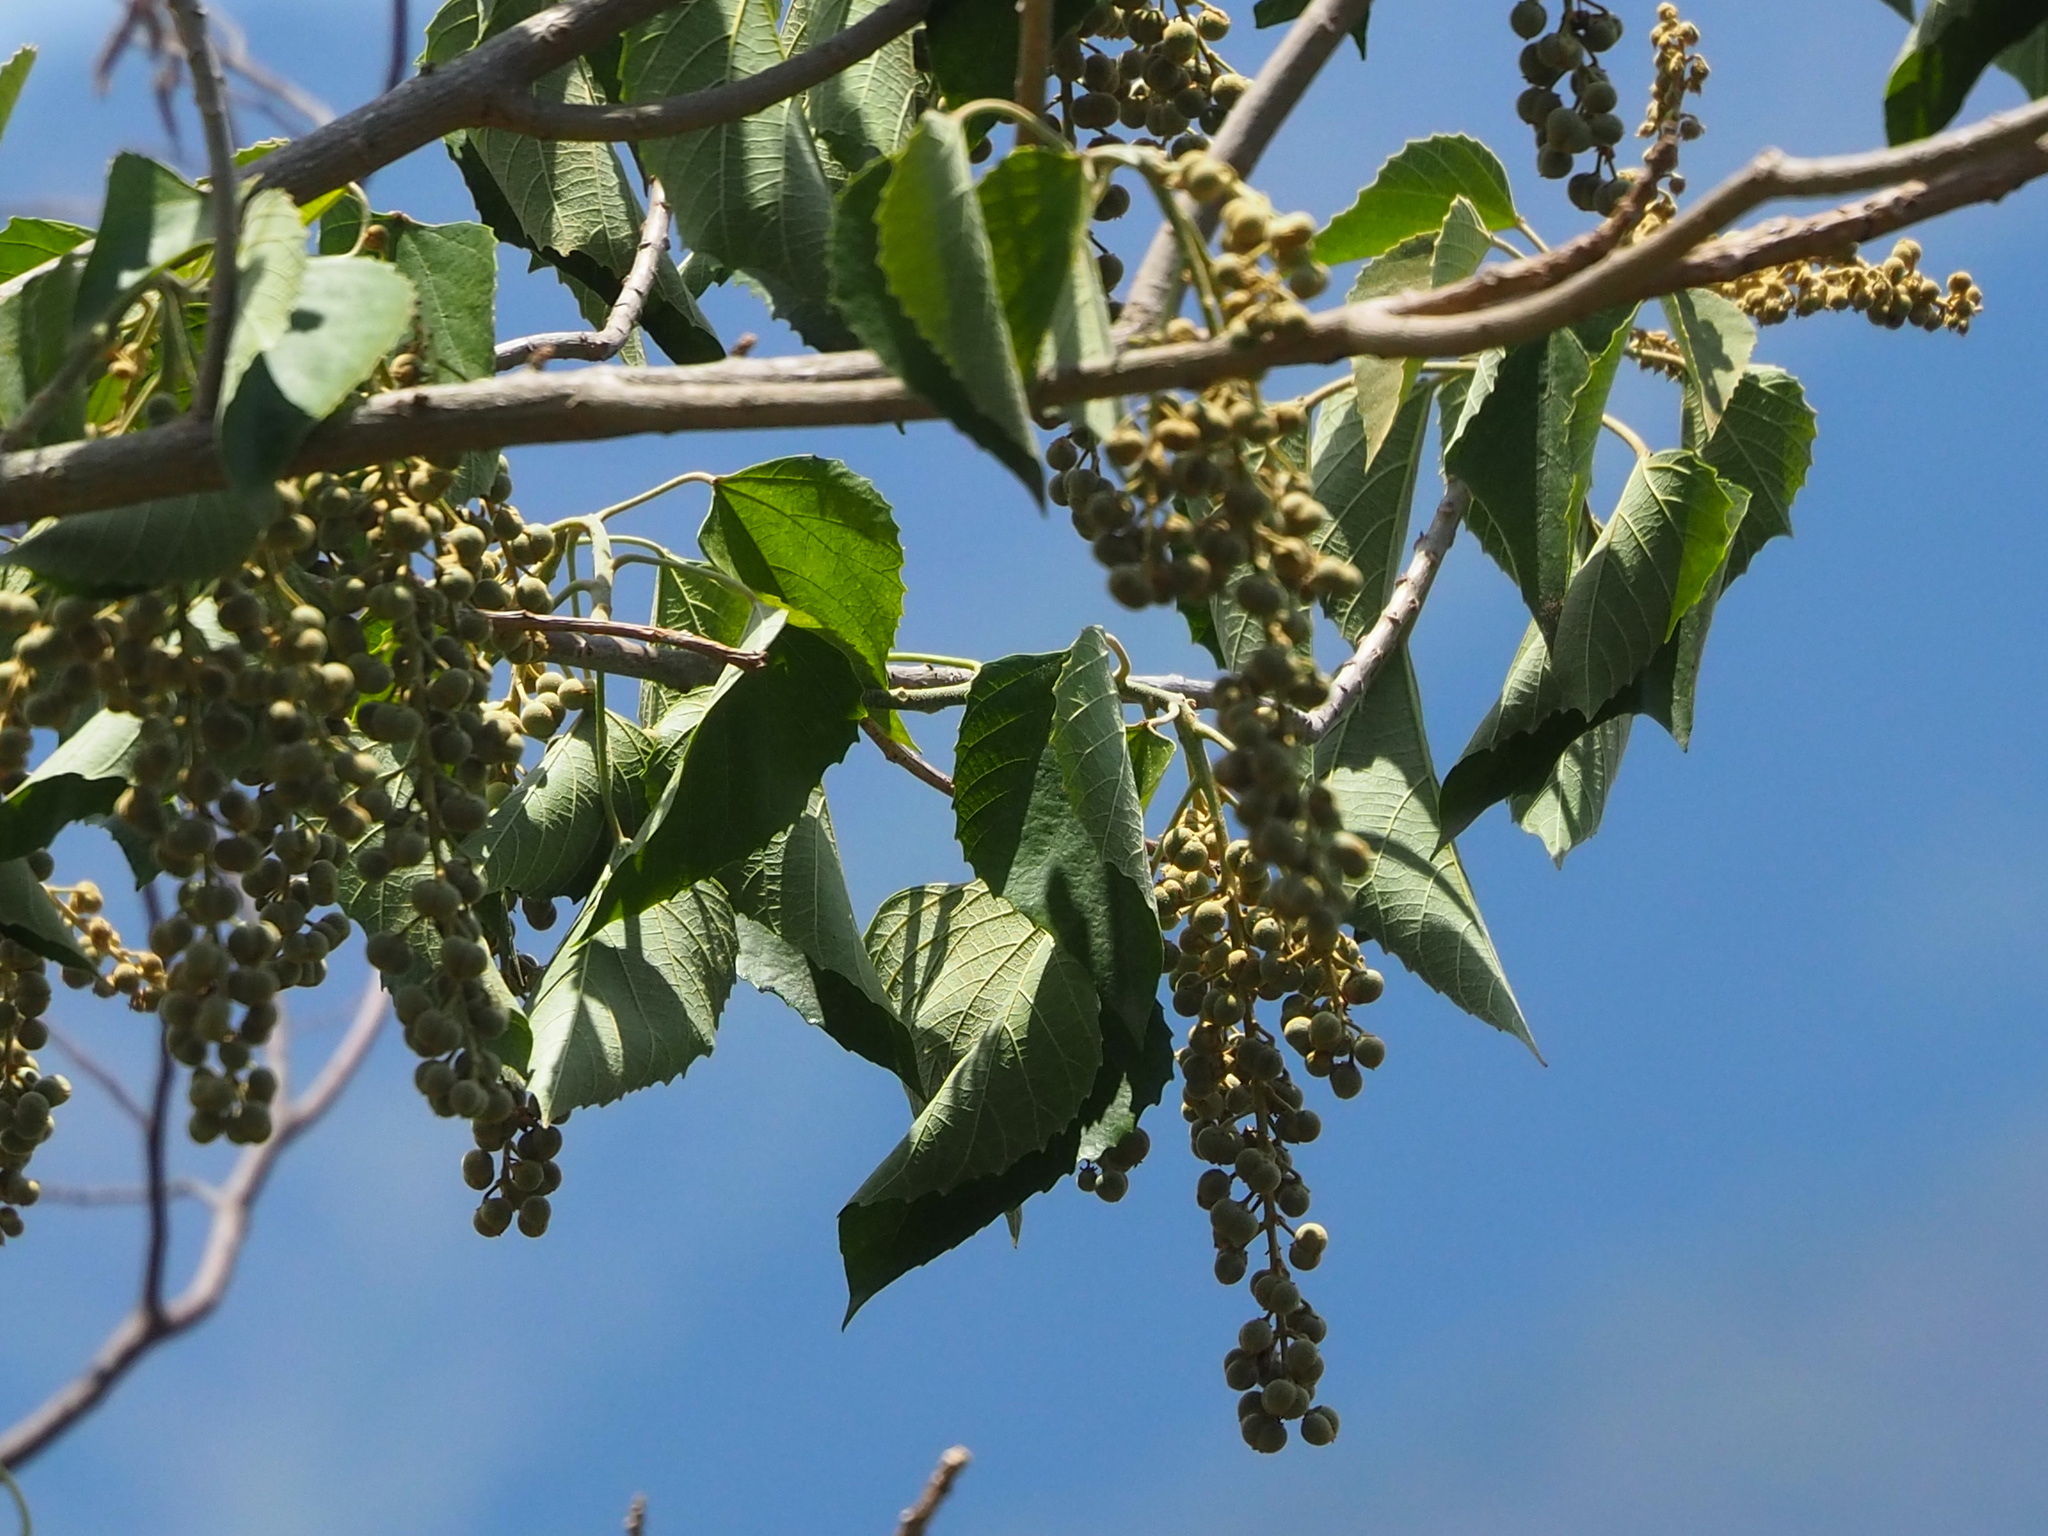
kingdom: Plantae
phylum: Tracheophyta
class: Magnoliopsida
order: Malpighiales
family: Euphorbiaceae
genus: Melanolepis
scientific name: Melanolepis multiglandulosa
